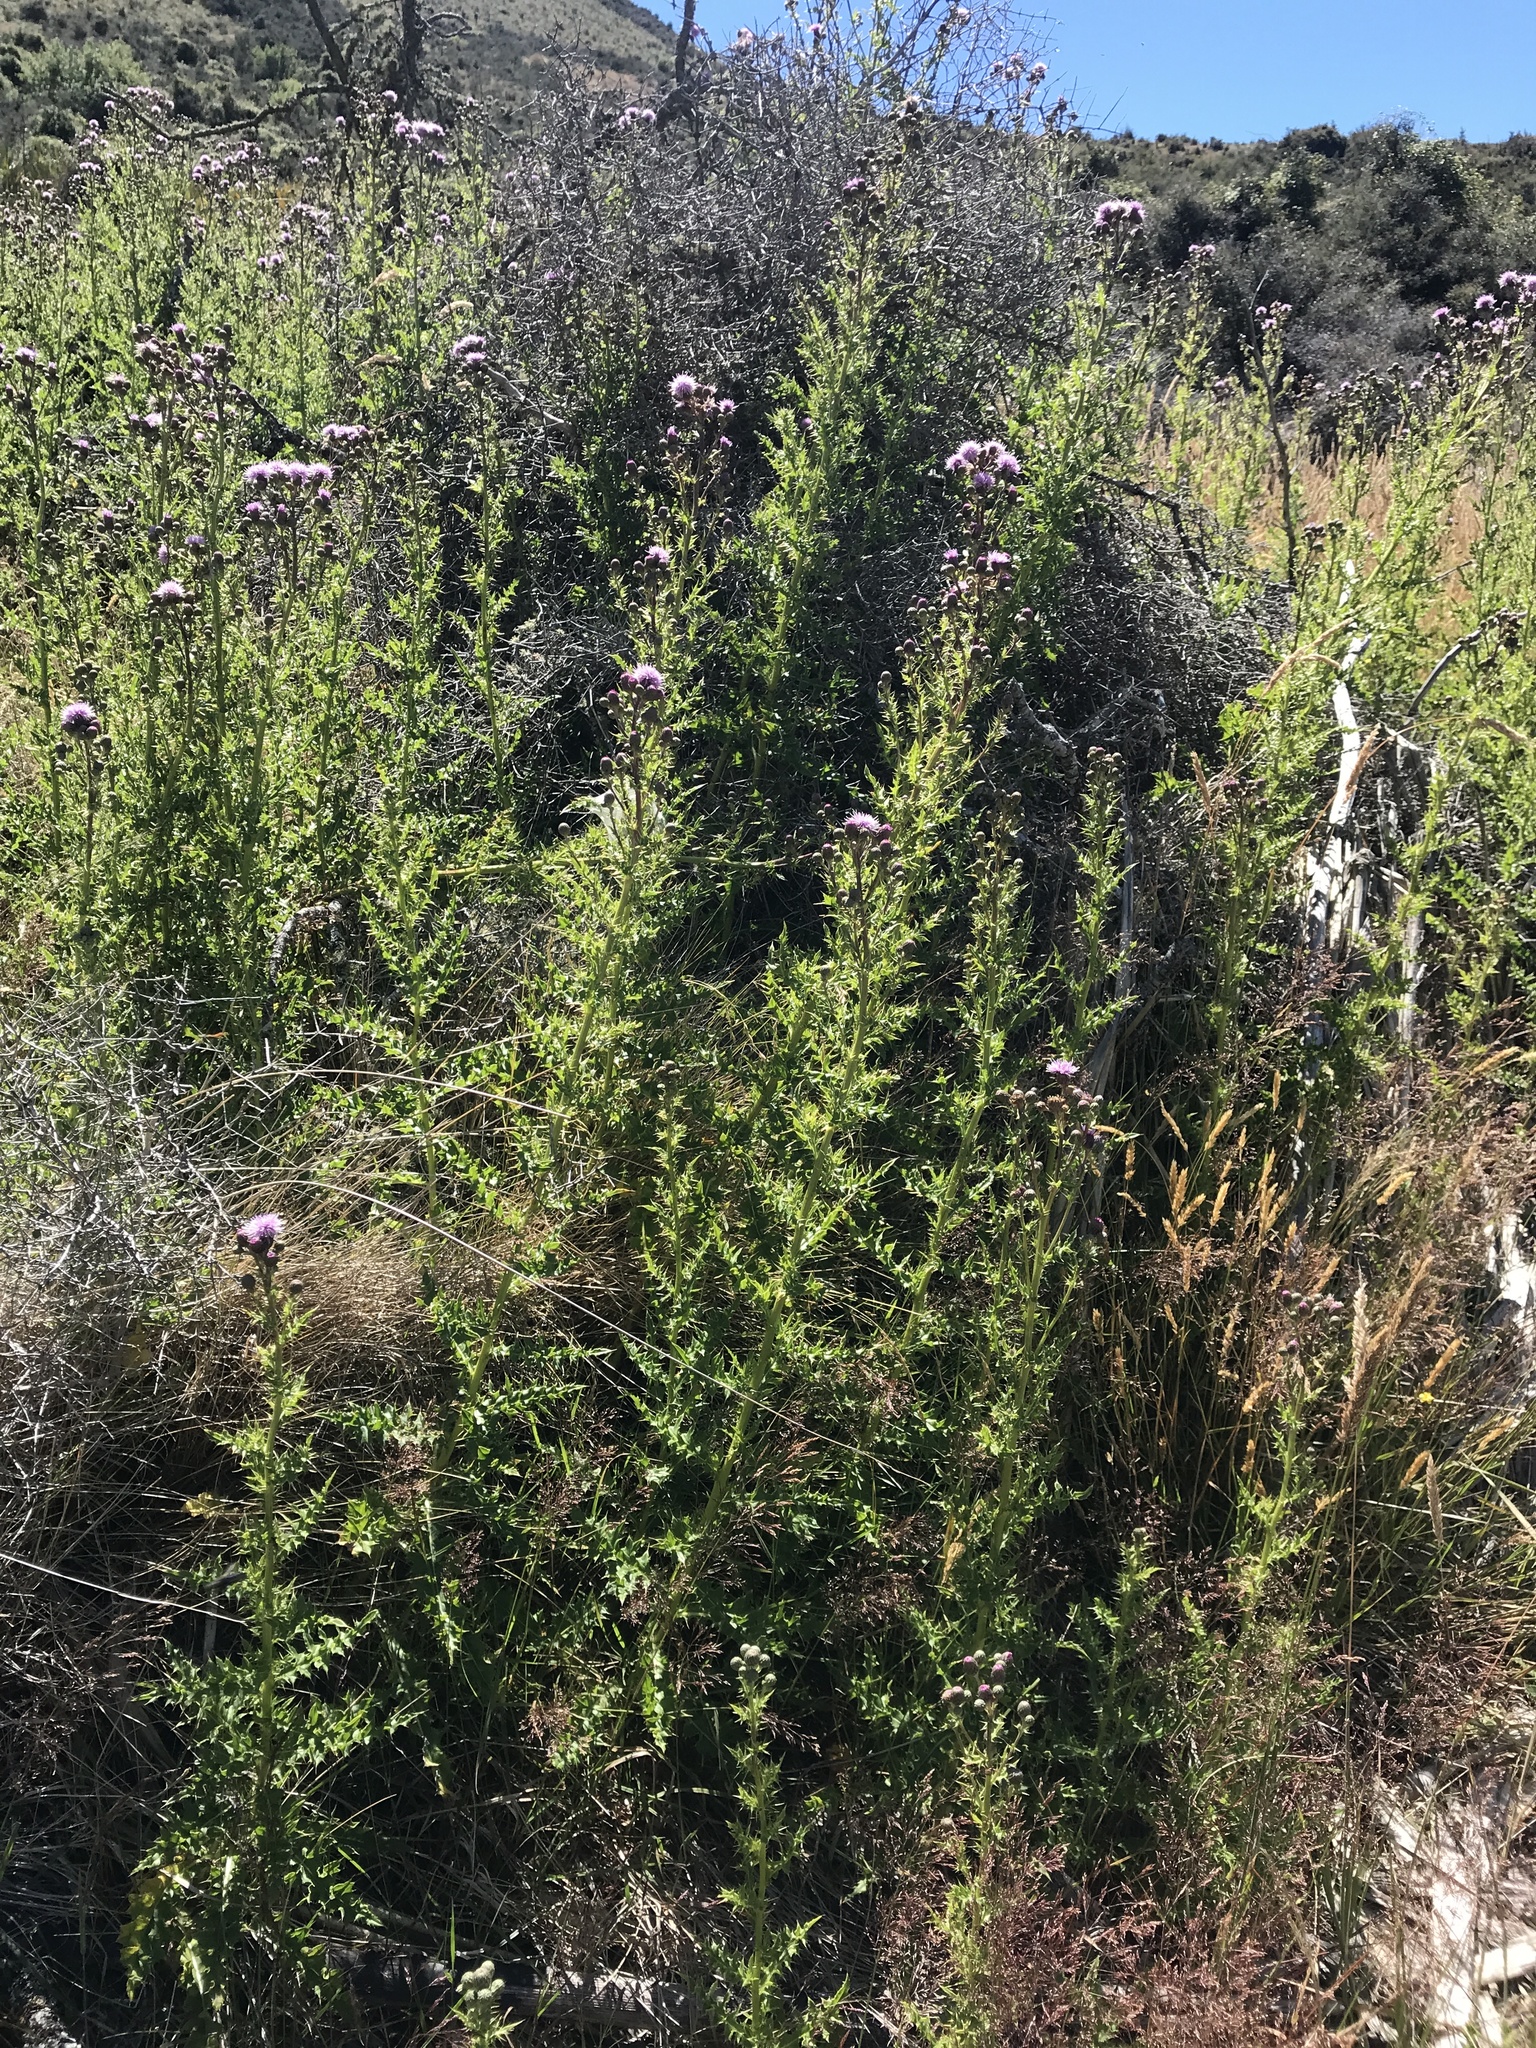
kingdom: Plantae
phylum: Tracheophyta
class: Magnoliopsida
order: Asterales
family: Asteraceae
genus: Cirsium
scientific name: Cirsium arvense
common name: Creeping thistle
